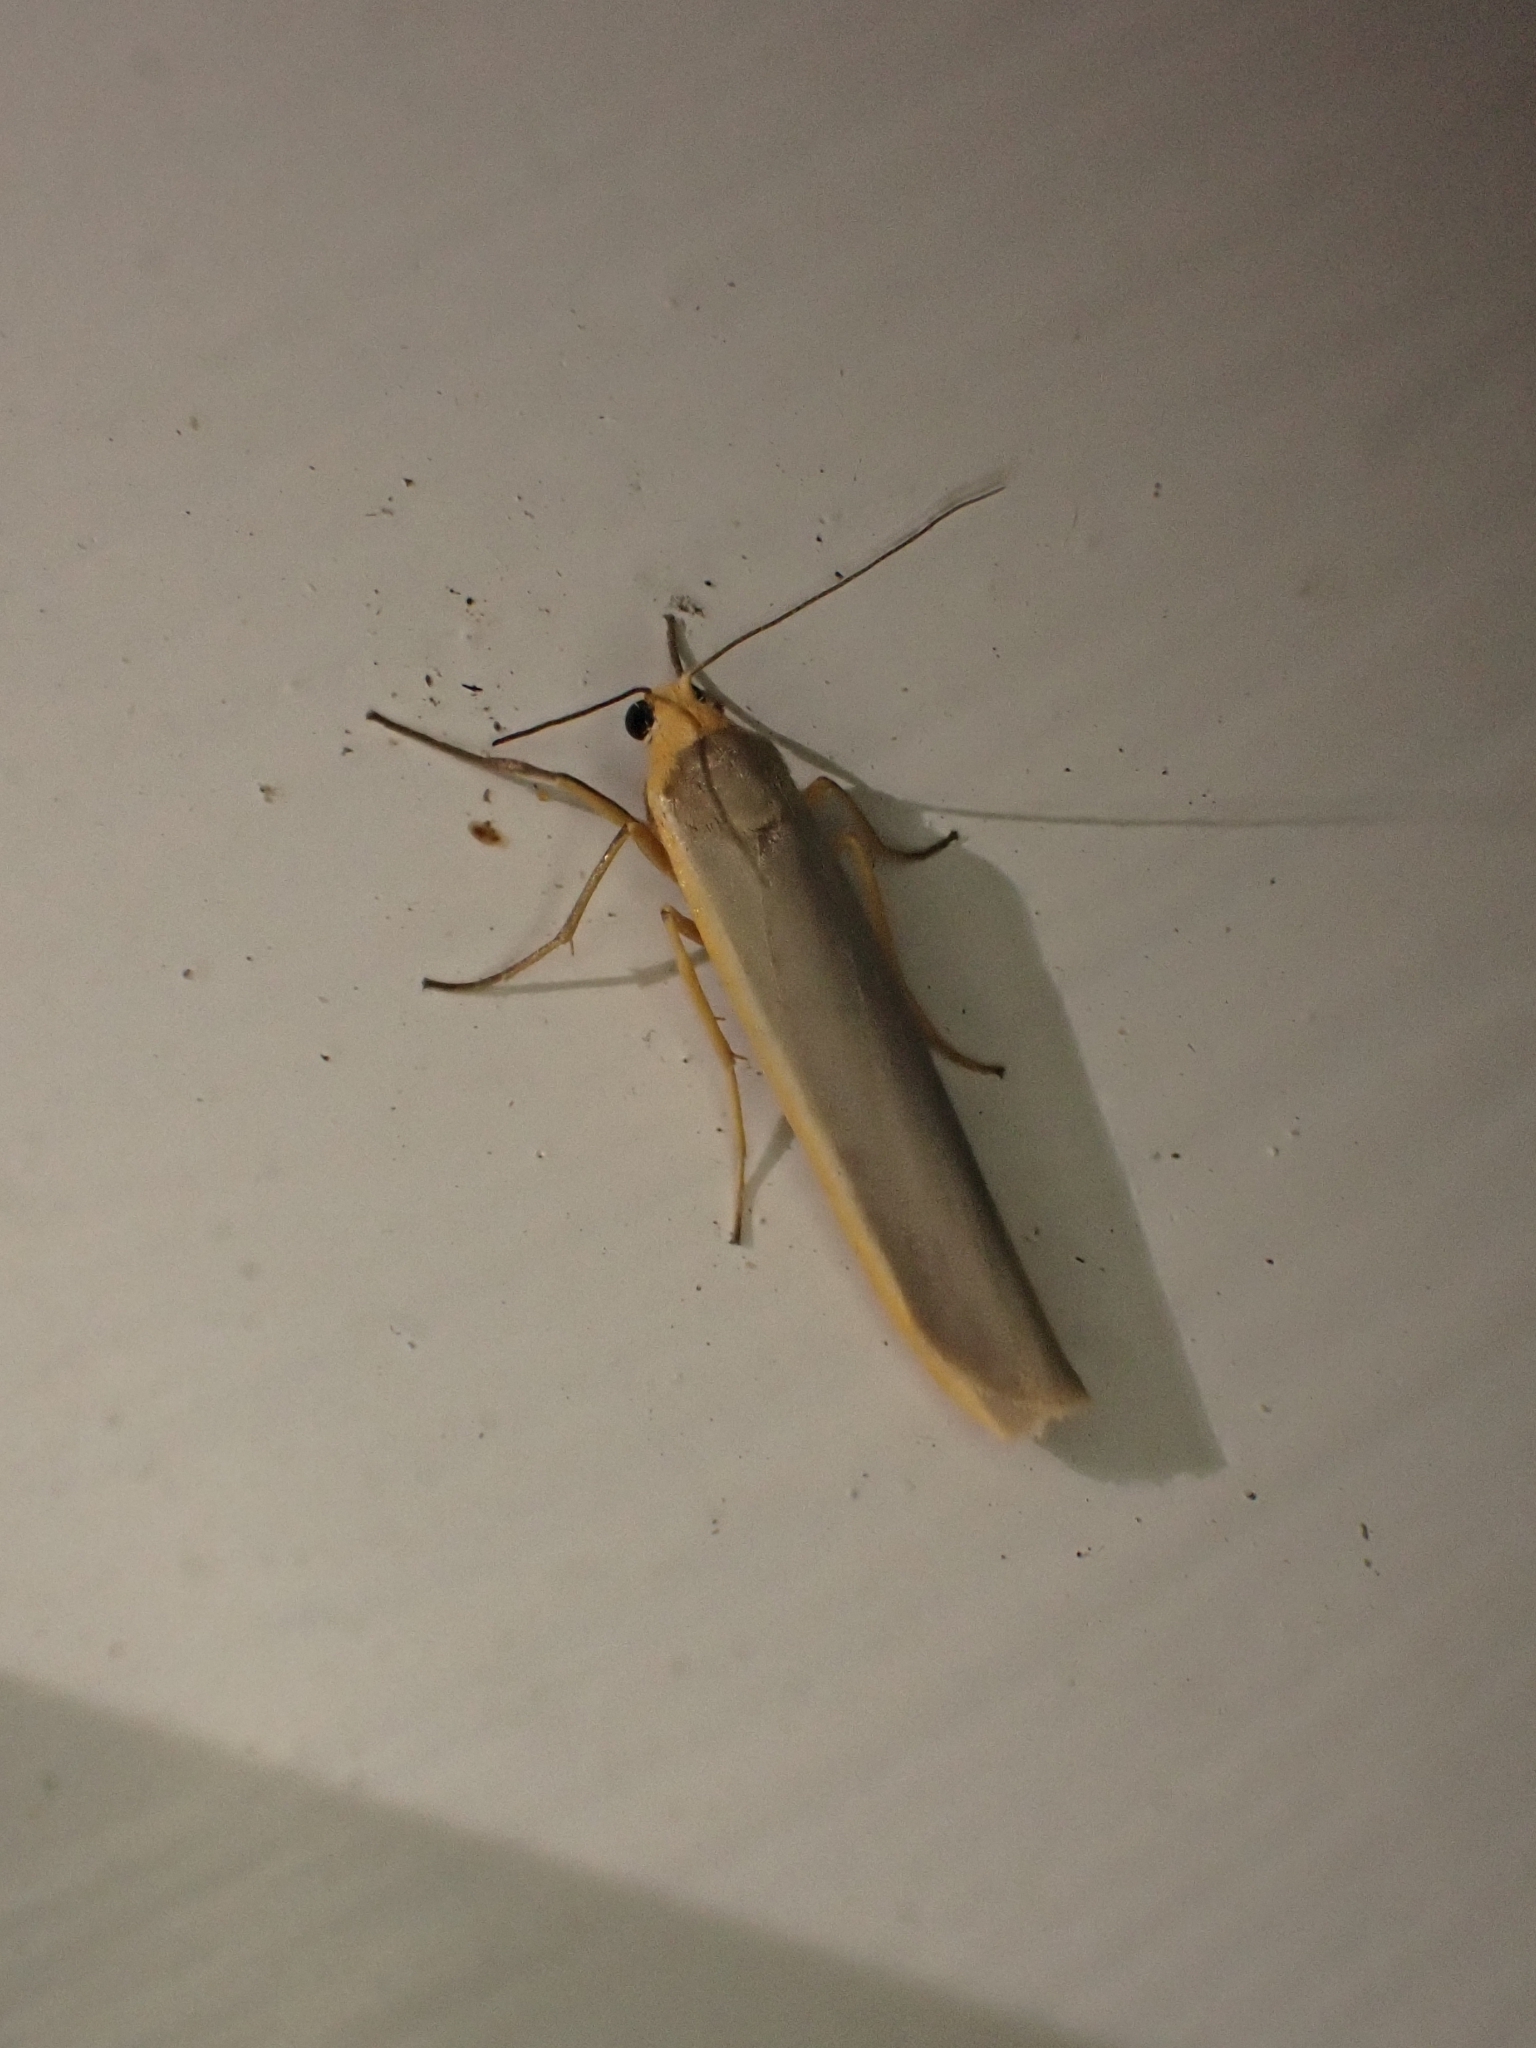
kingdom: Animalia
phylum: Arthropoda
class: Insecta
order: Lepidoptera
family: Erebidae
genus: Manulea
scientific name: Manulea complana
